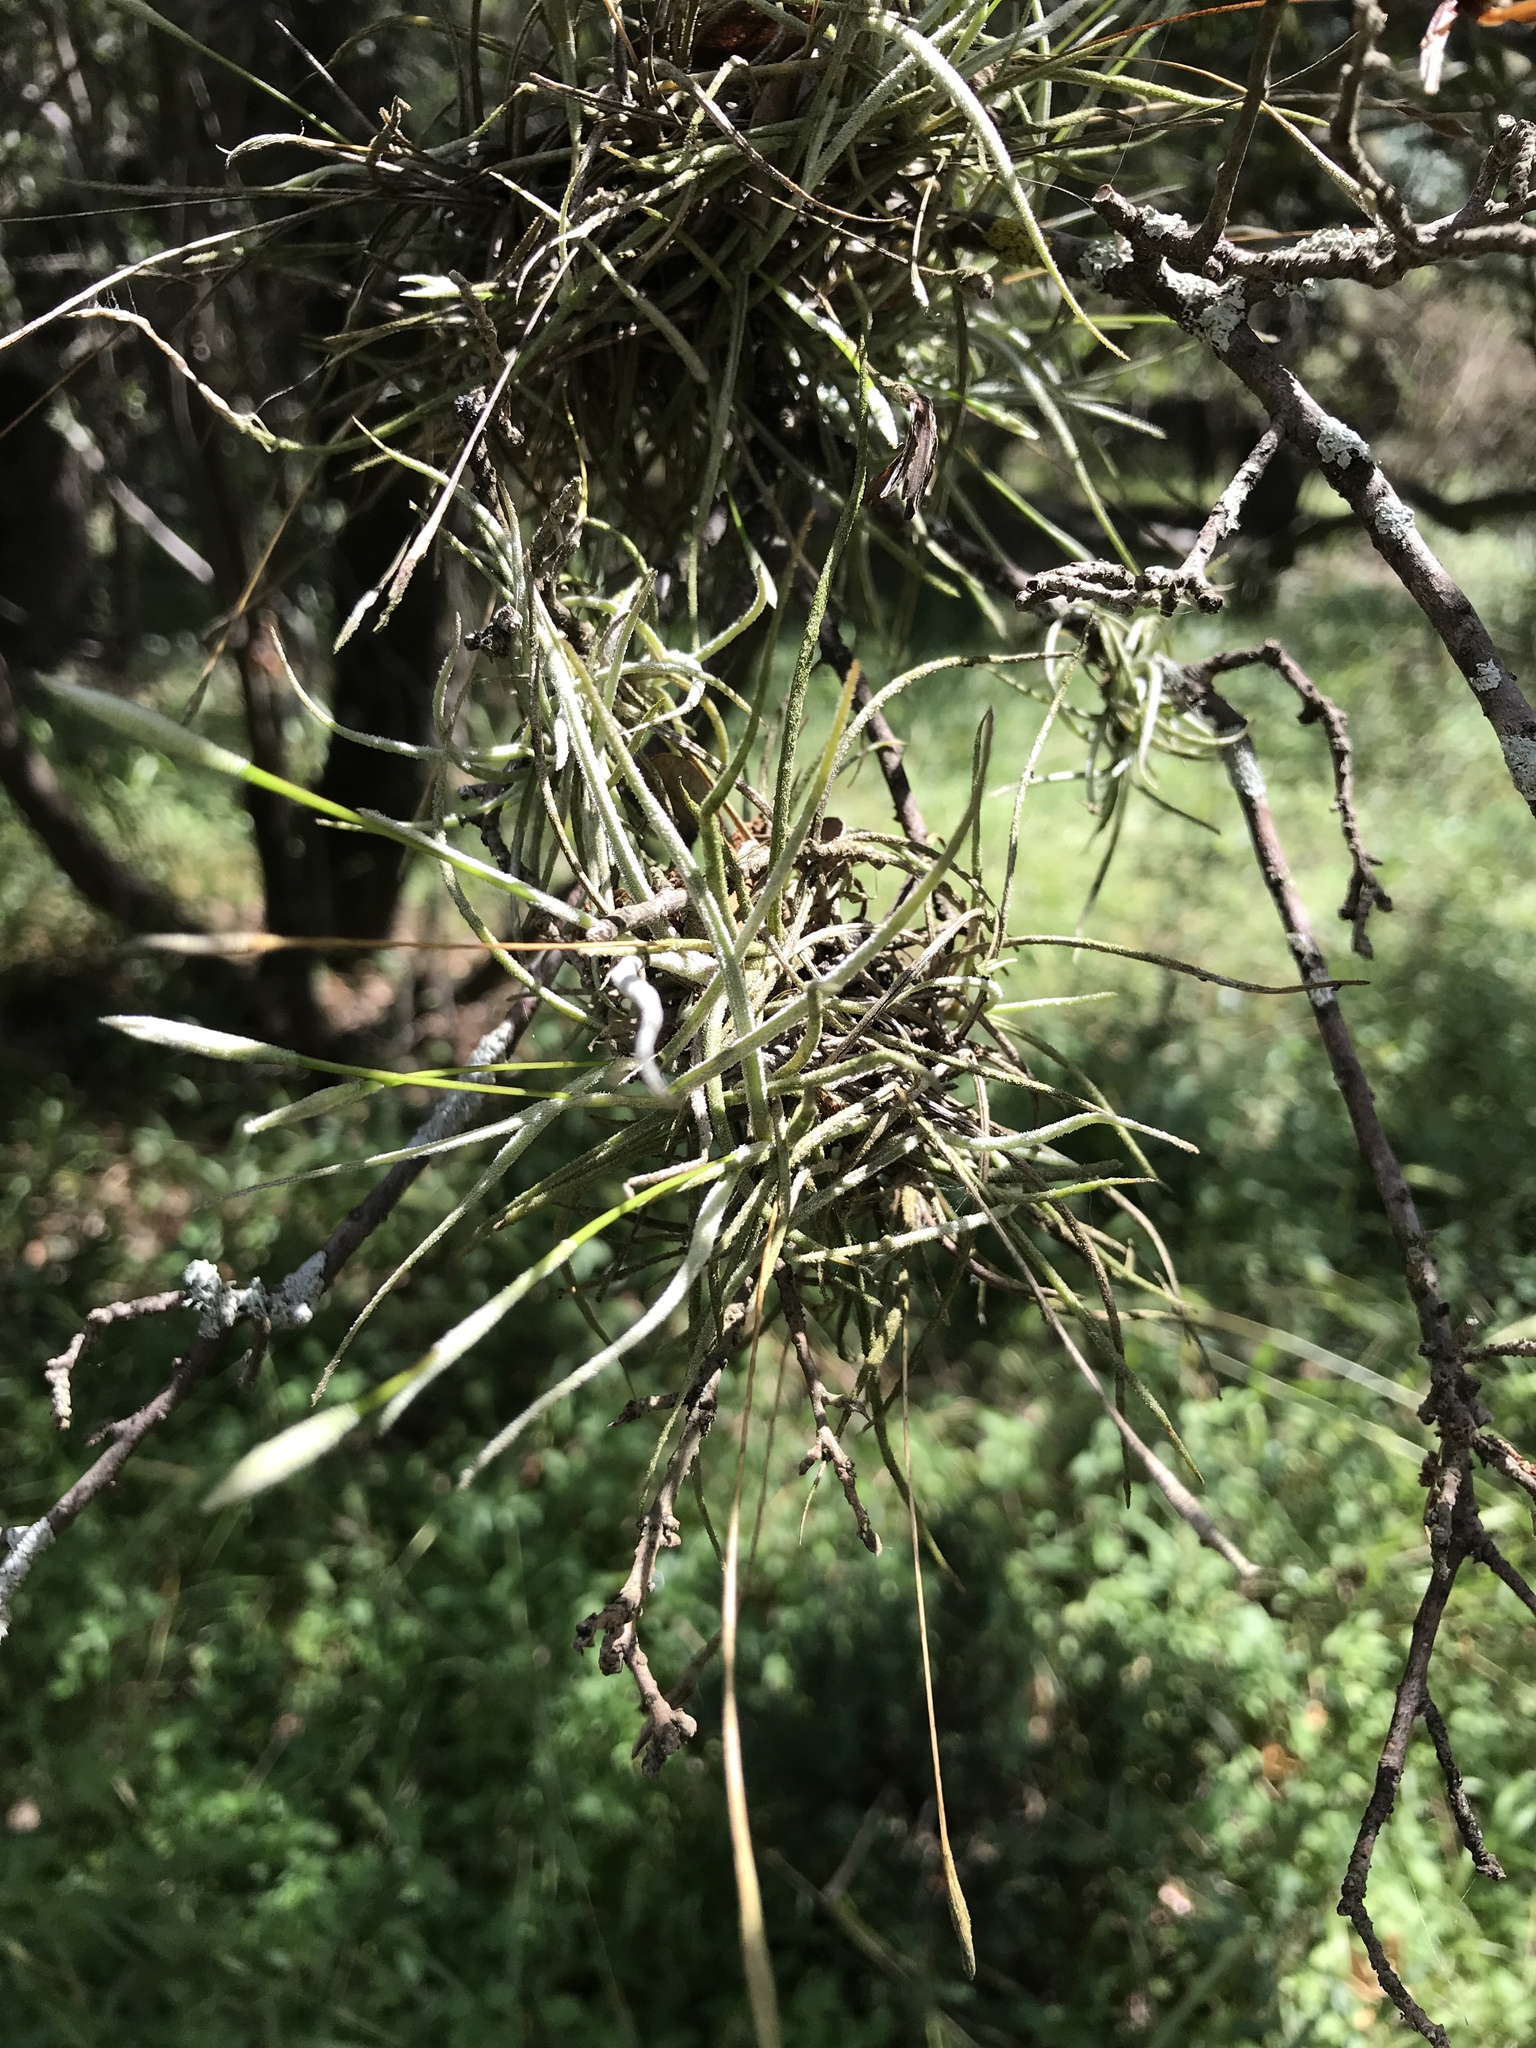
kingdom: Plantae
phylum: Tracheophyta
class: Liliopsida
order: Poales
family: Bromeliaceae
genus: Tillandsia
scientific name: Tillandsia recurvata
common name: Small ballmoss
